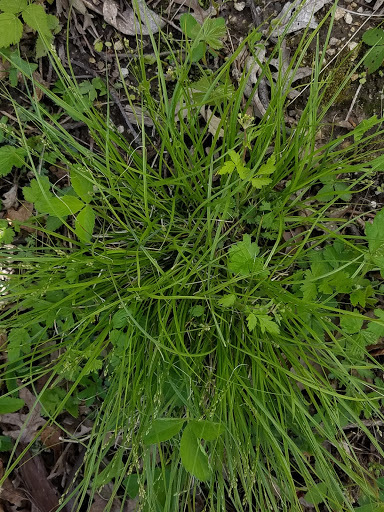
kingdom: Plantae
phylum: Tracheophyta
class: Liliopsida
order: Poales
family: Cyperaceae
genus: Carex
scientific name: Carex rosea
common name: Curly-styled wood sedge
